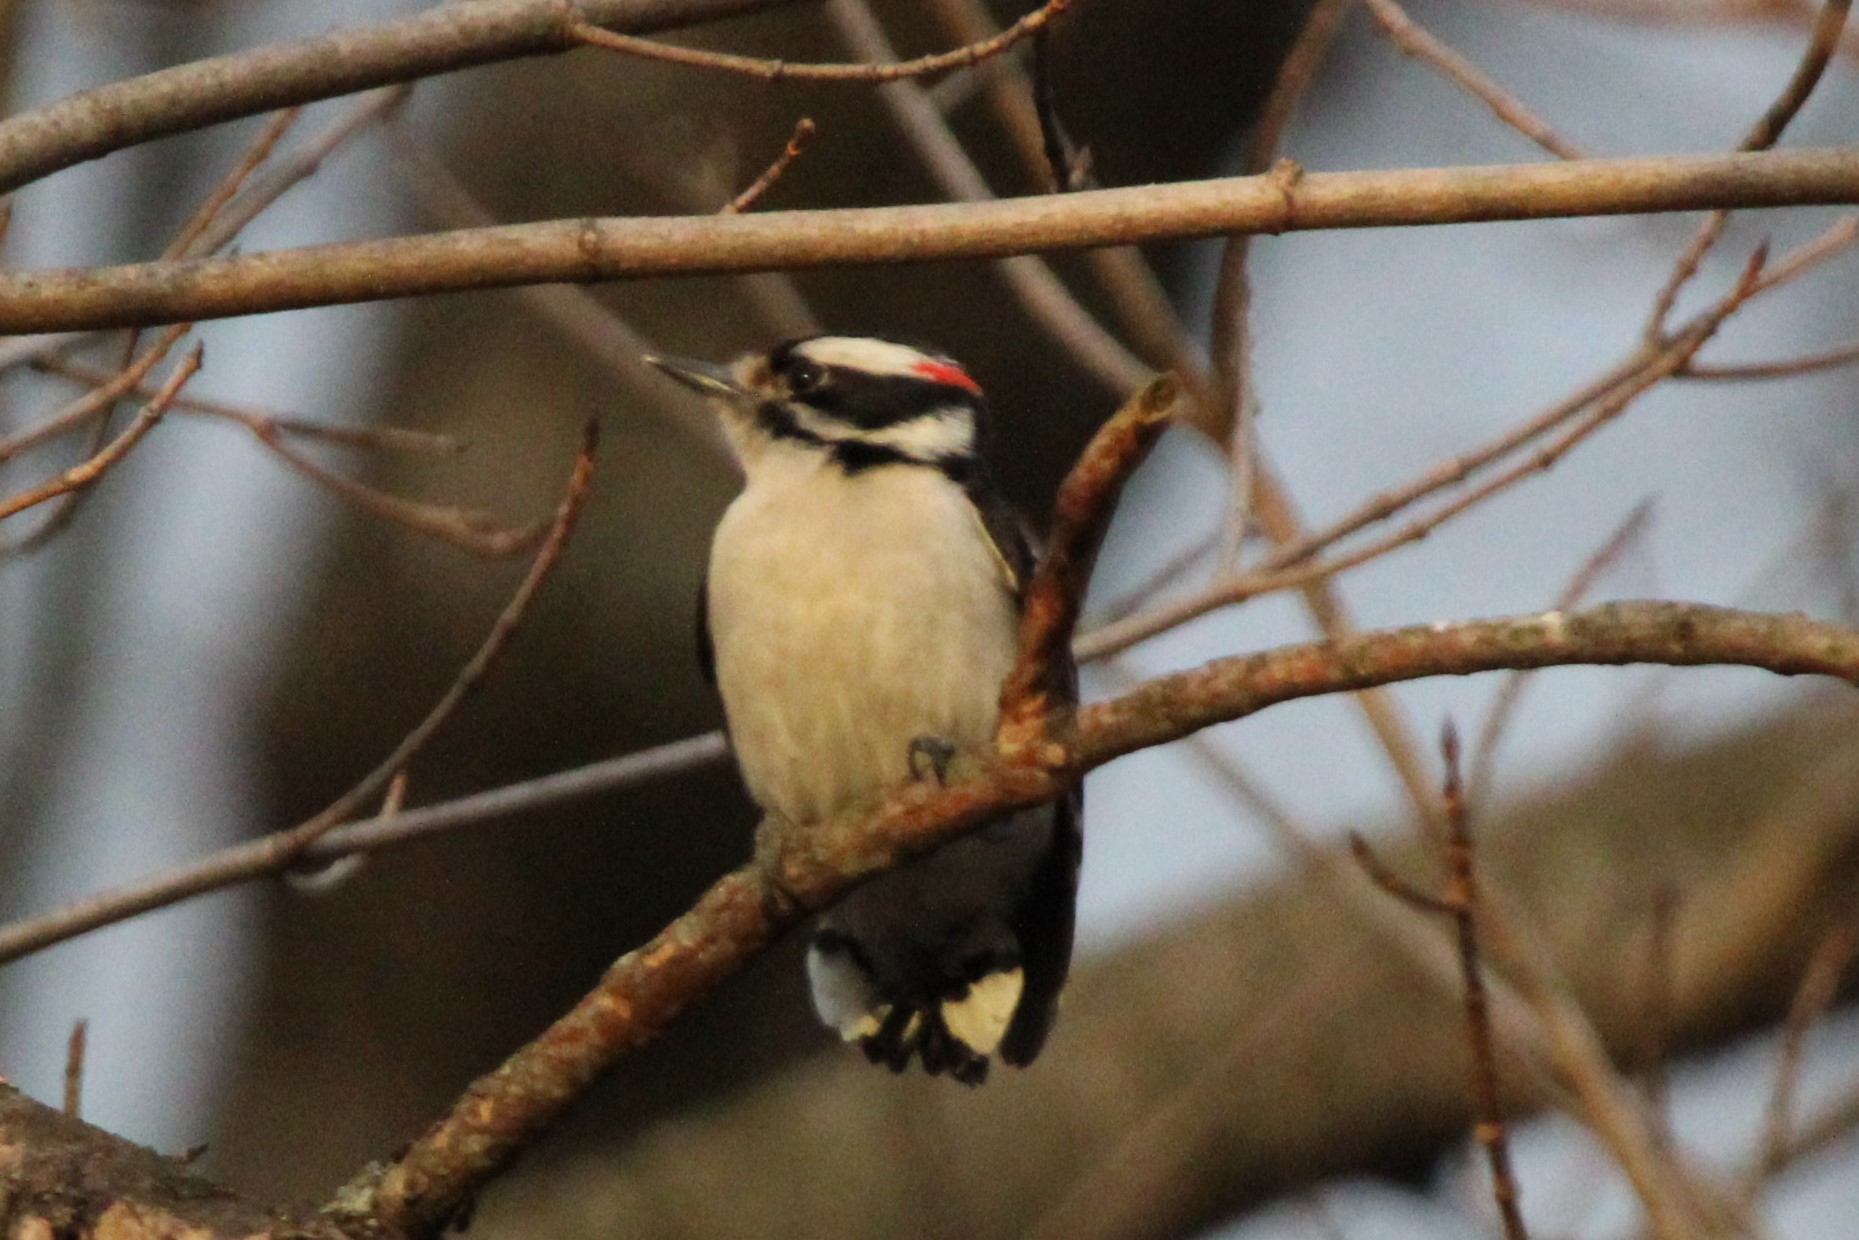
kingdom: Animalia
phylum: Chordata
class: Aves
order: Piciformes
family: Picidae
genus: Dryobates
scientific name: Dryobates pubescens
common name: Downy woodpecker
